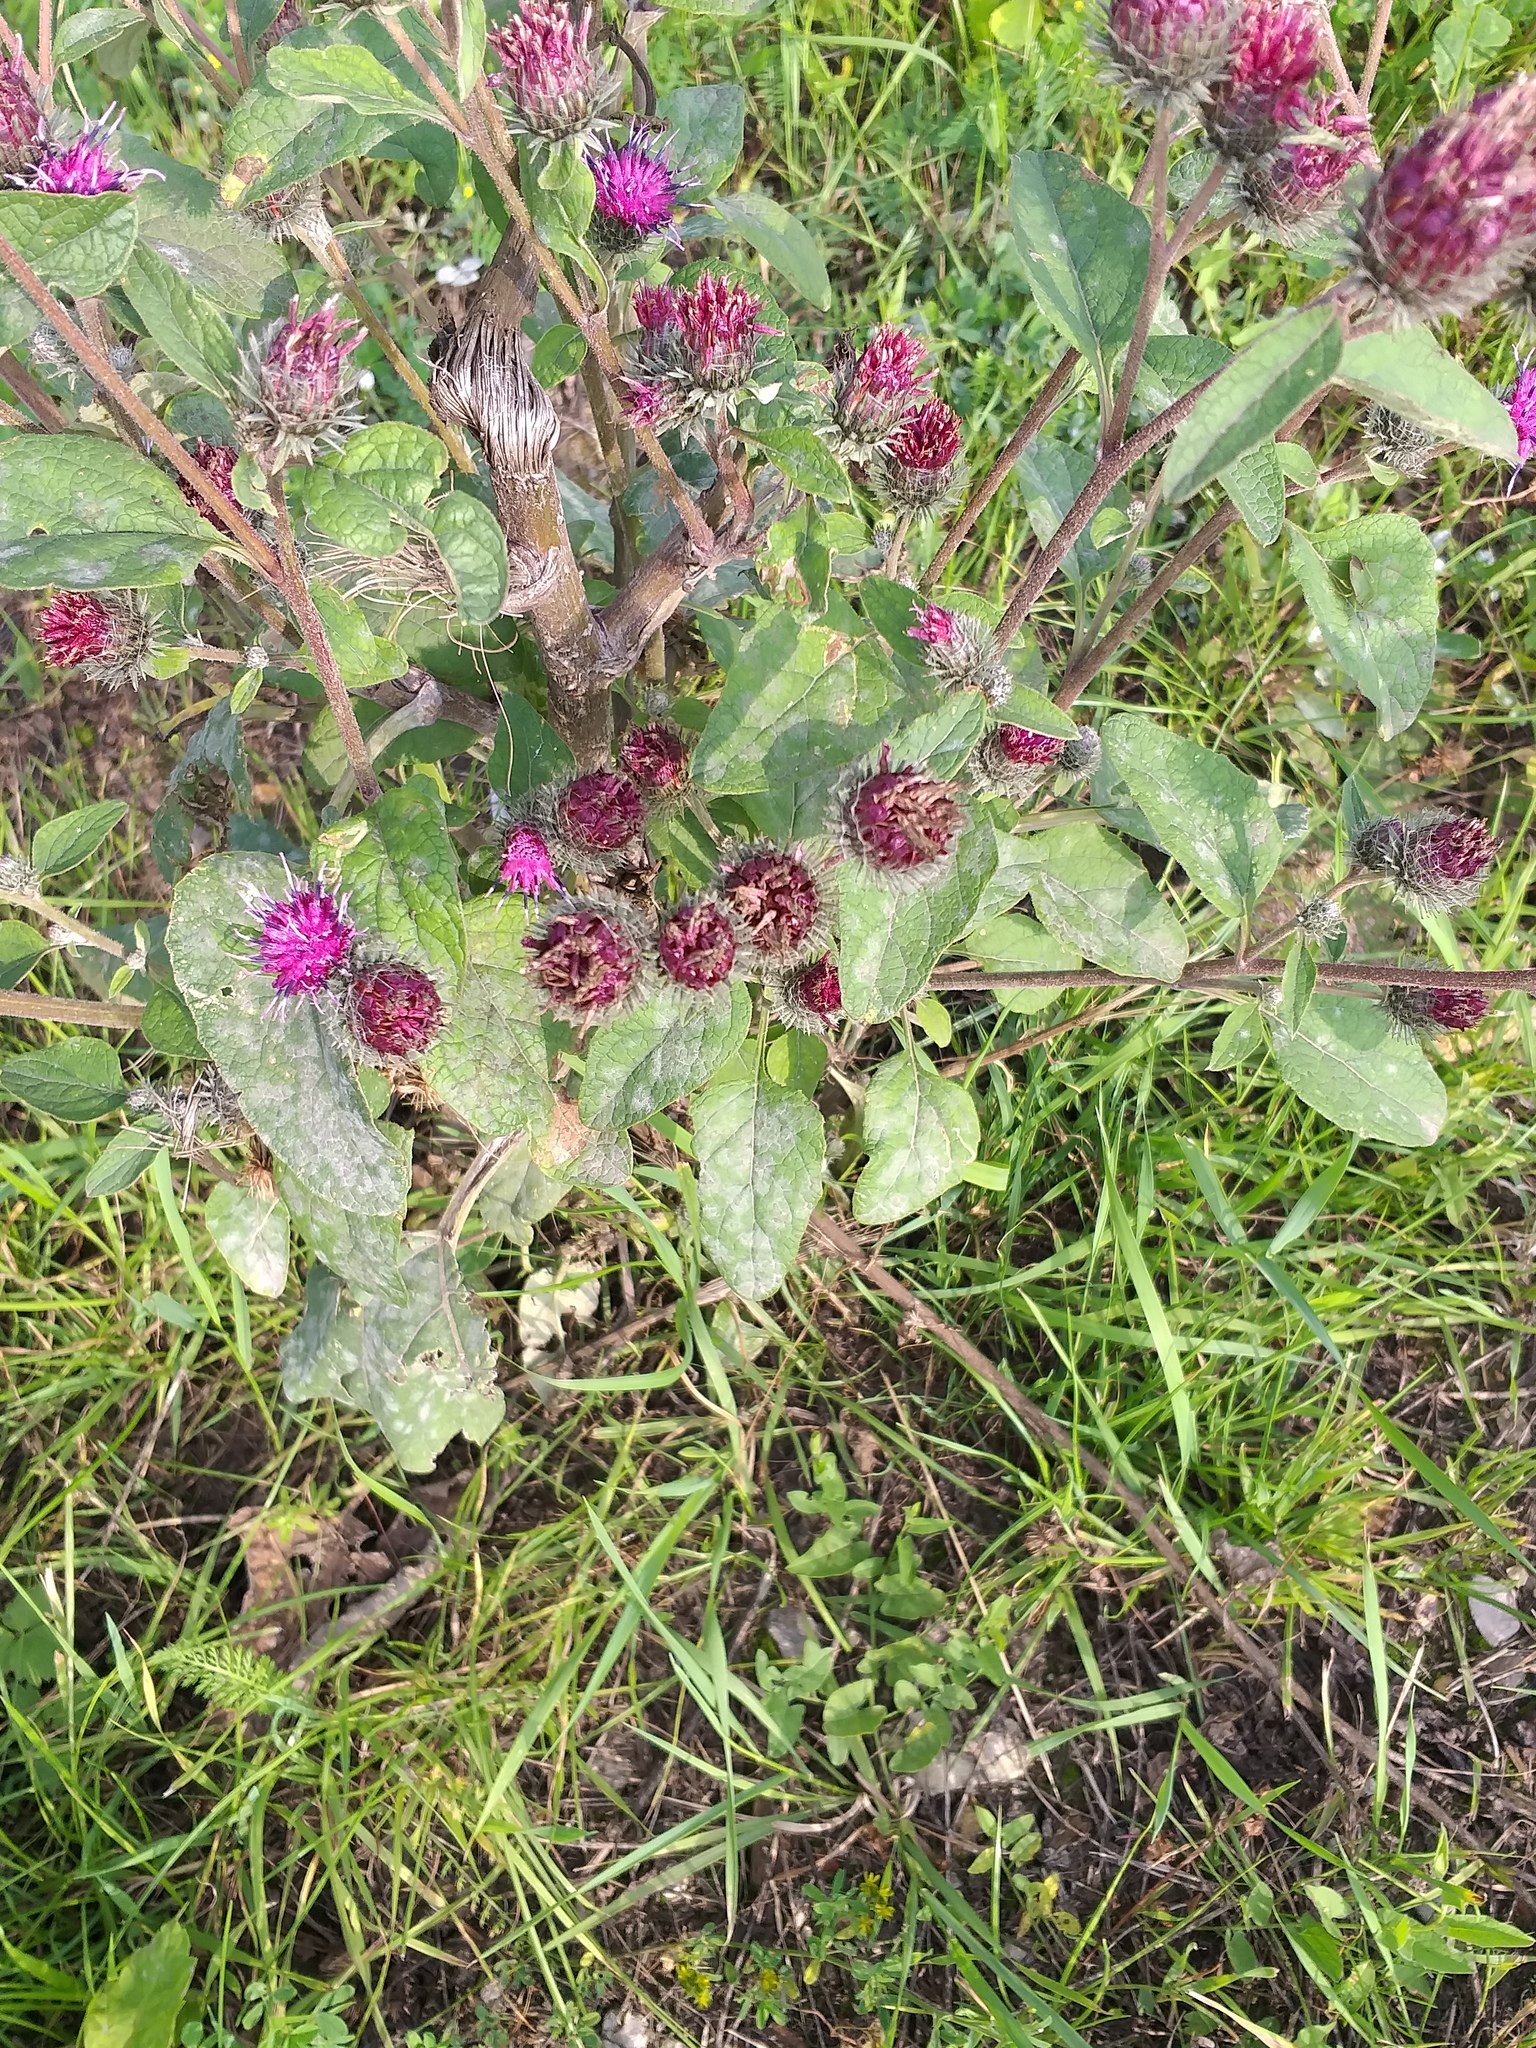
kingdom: Plantae
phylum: Tracheophyta
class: Magnoliopsida
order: Asterales
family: Asteraceae
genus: Arctium
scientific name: Arctium tomentosum
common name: Woolly burdock
